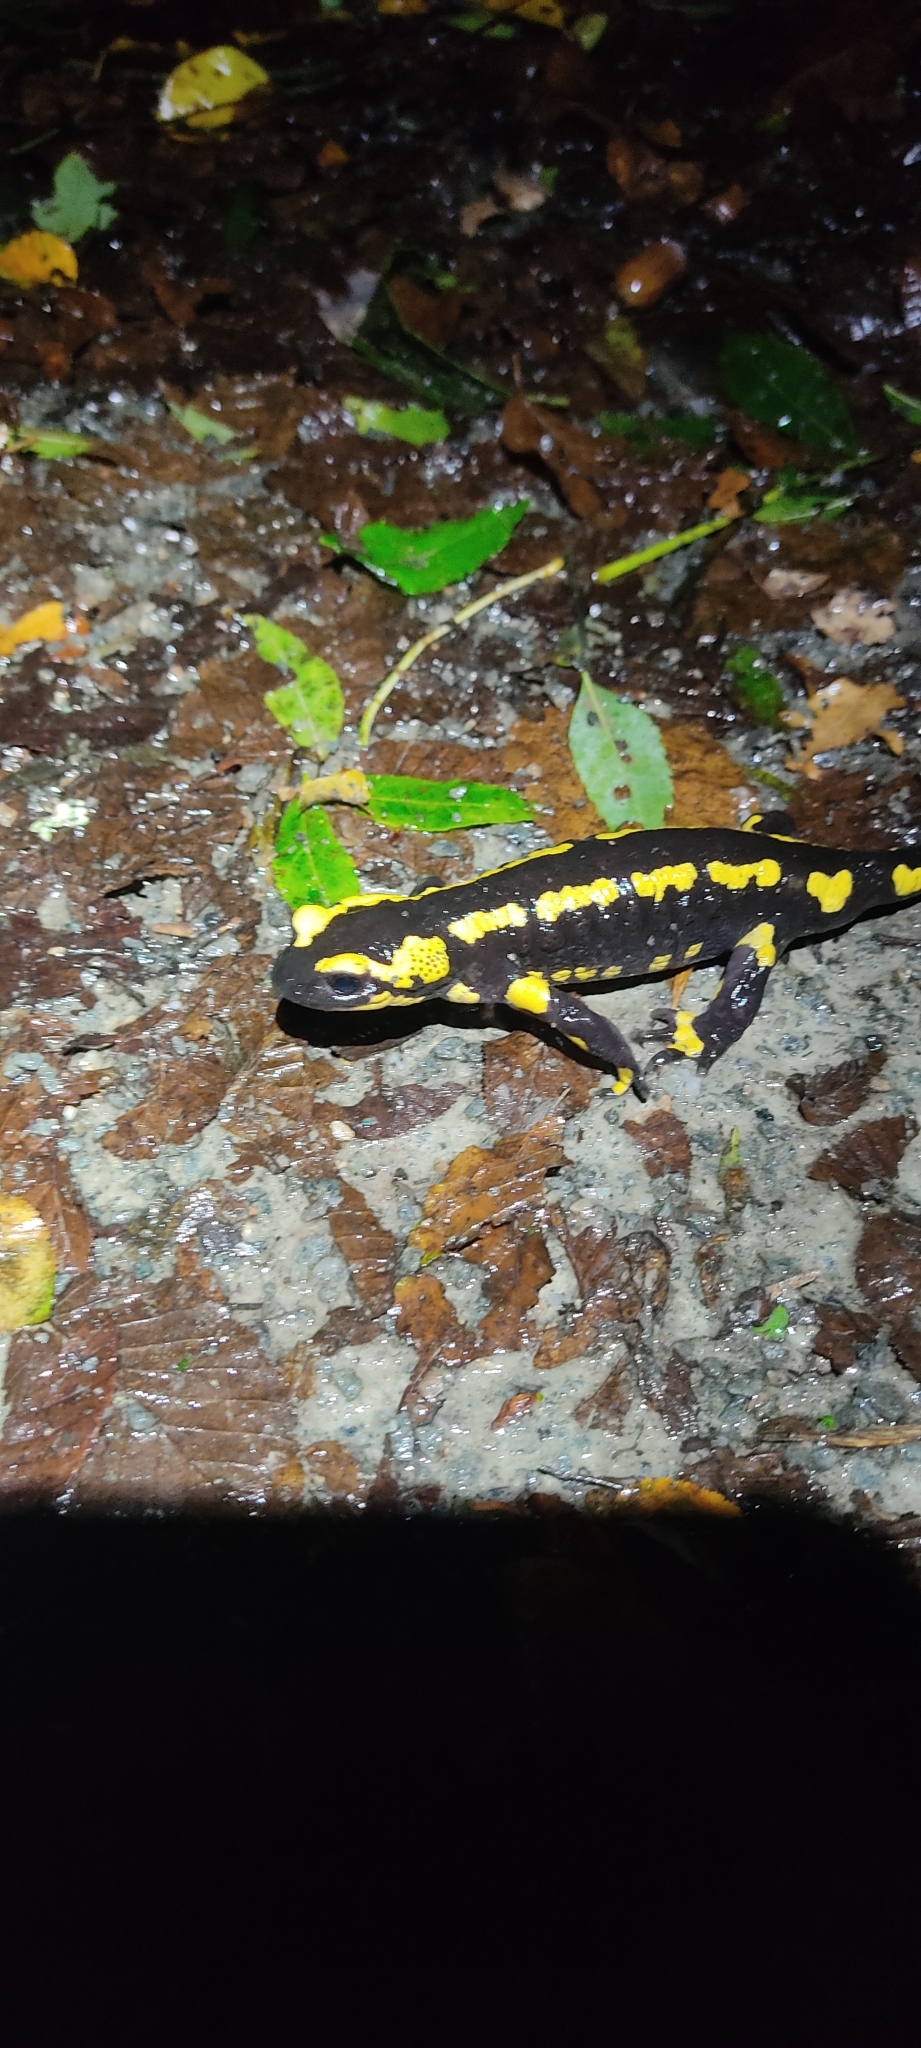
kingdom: Animalia
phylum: Chordata
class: Amphibia
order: Caudata
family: Salamandridae
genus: Salamandra
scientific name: Salamandra salamandra
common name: Fire salamander
